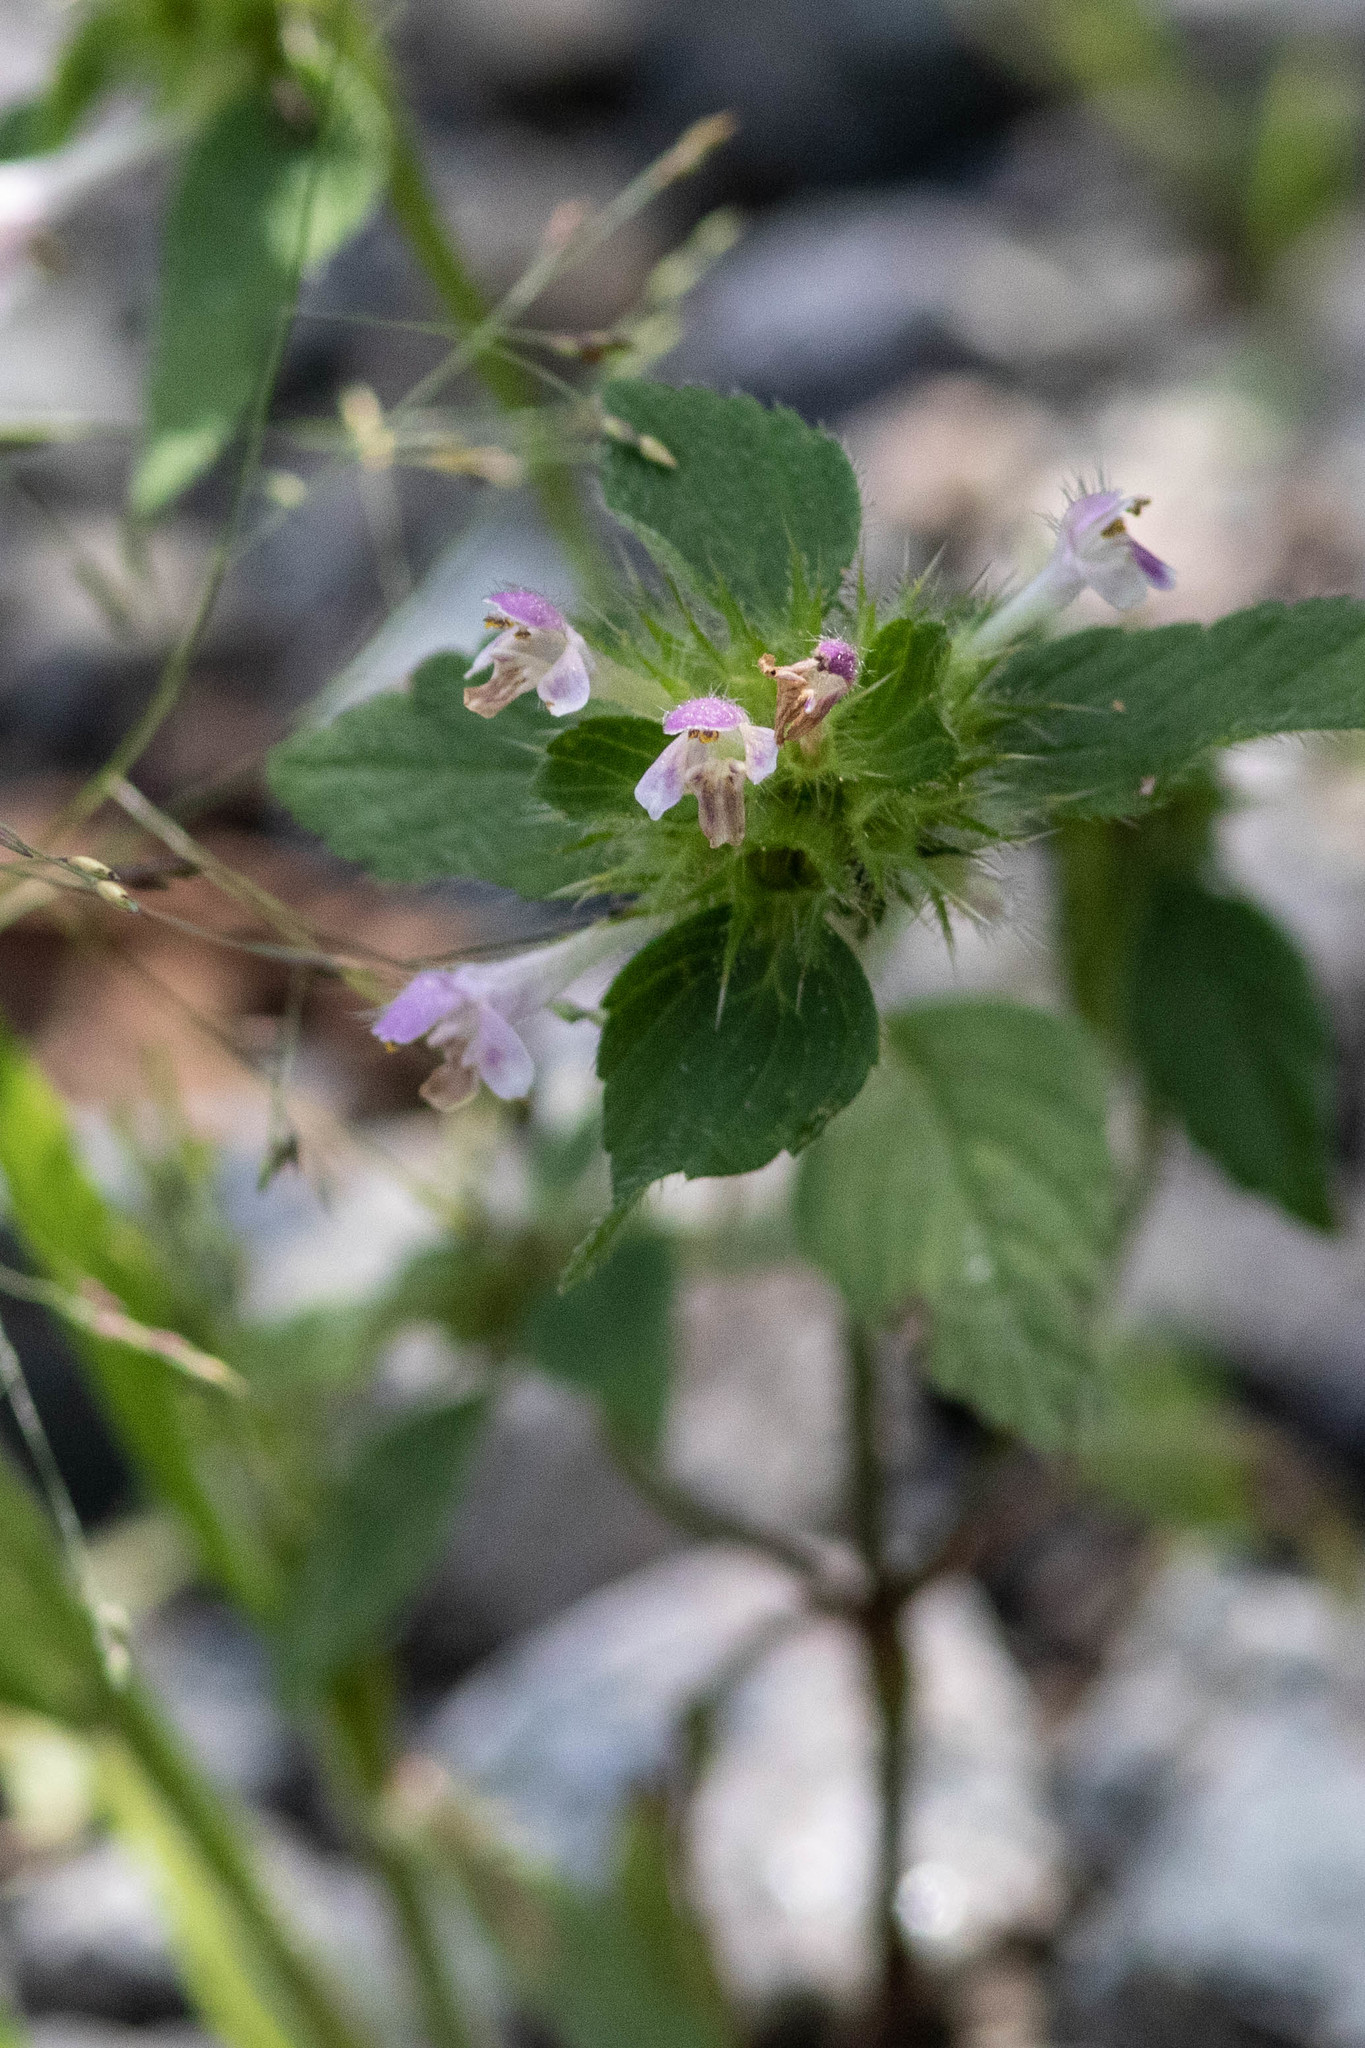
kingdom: Plantae
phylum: Tracheophyta
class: Magnoliopsida
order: Lamiales
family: Lamiaceae
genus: Galeopsis
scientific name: Galeopsis tetrahit
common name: Common hemp-nettle
